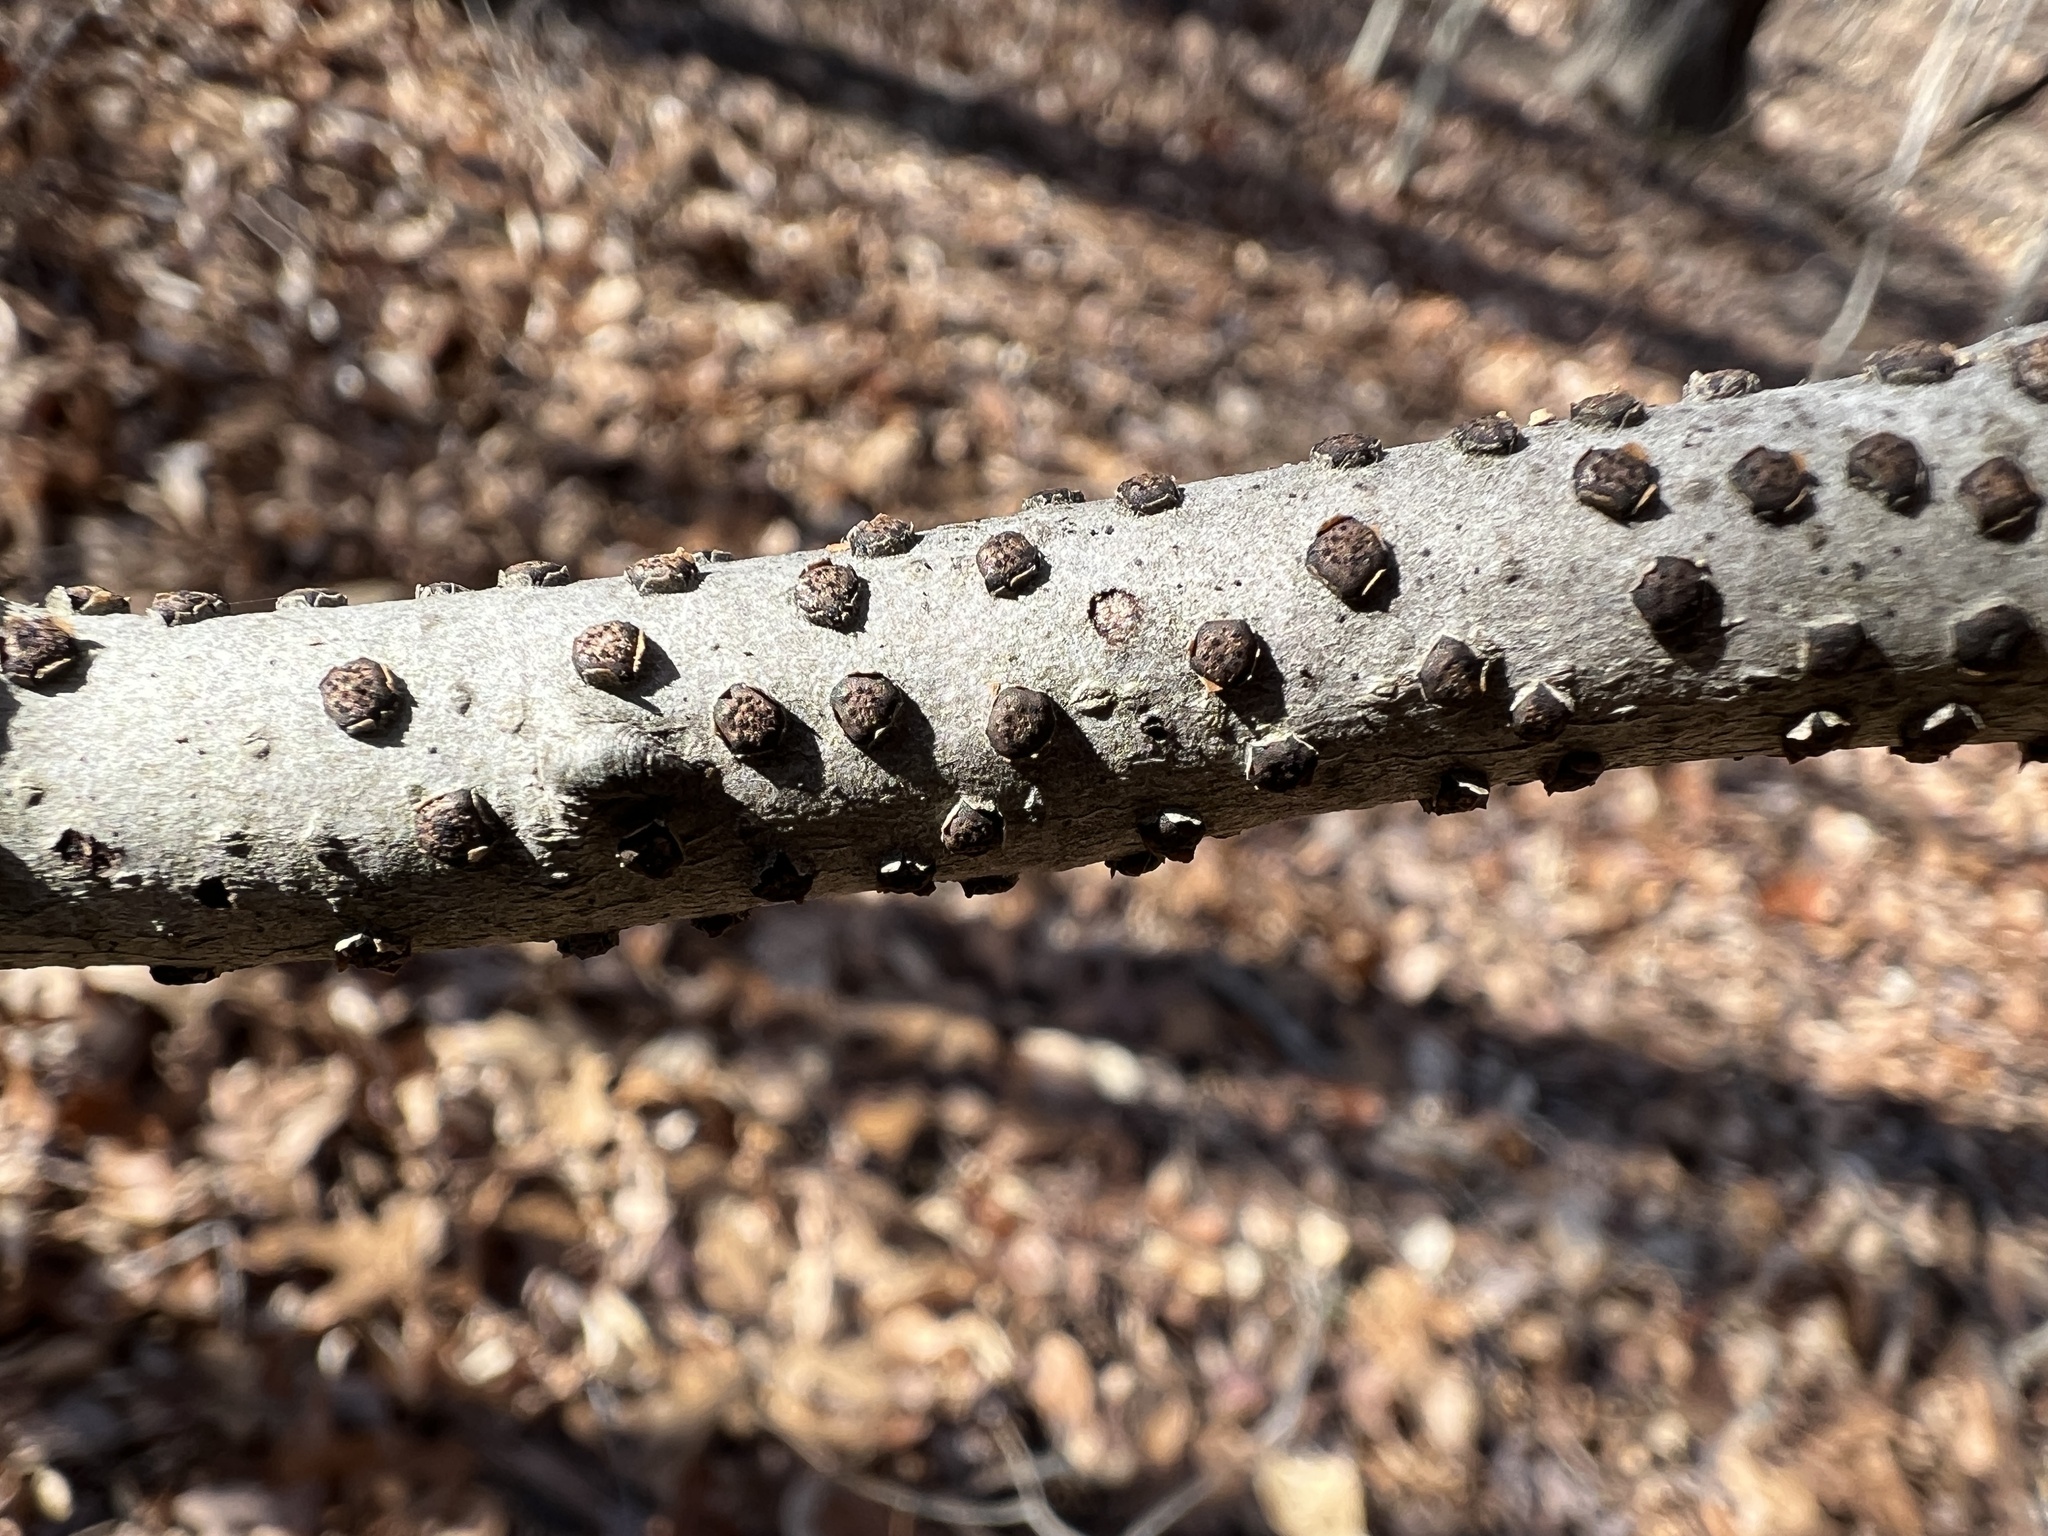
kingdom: Fungi
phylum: Ascomycota
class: Sordariomycetes
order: Xylariales
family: Diatrypaceae
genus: Diatrype
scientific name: Diatrype virescens
